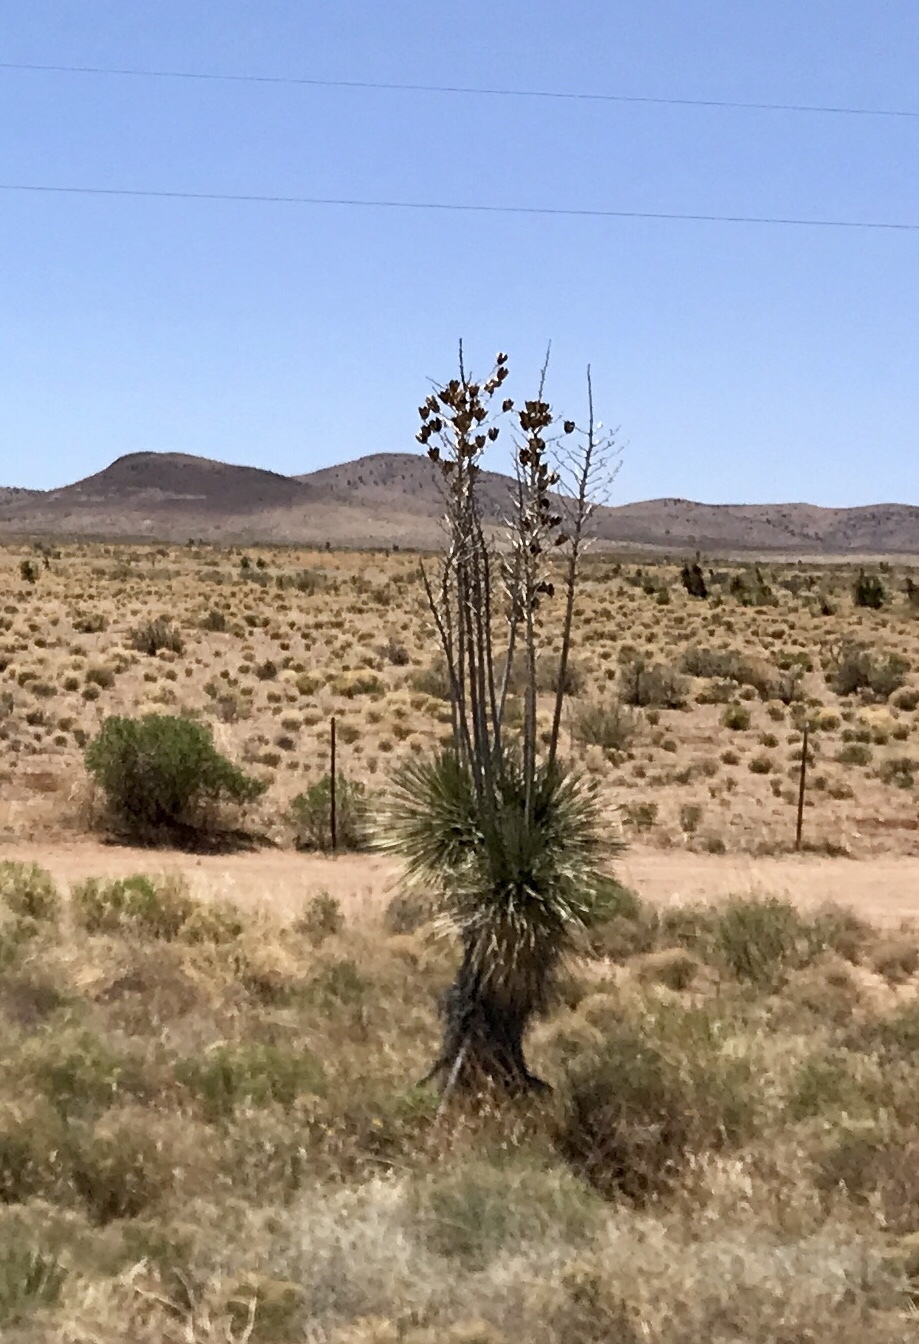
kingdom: Plantae
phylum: Tracheophyta
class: Liliopsida
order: Asparagales
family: Asparagaceae
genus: Yucca
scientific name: Yucca elata
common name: Palmella
